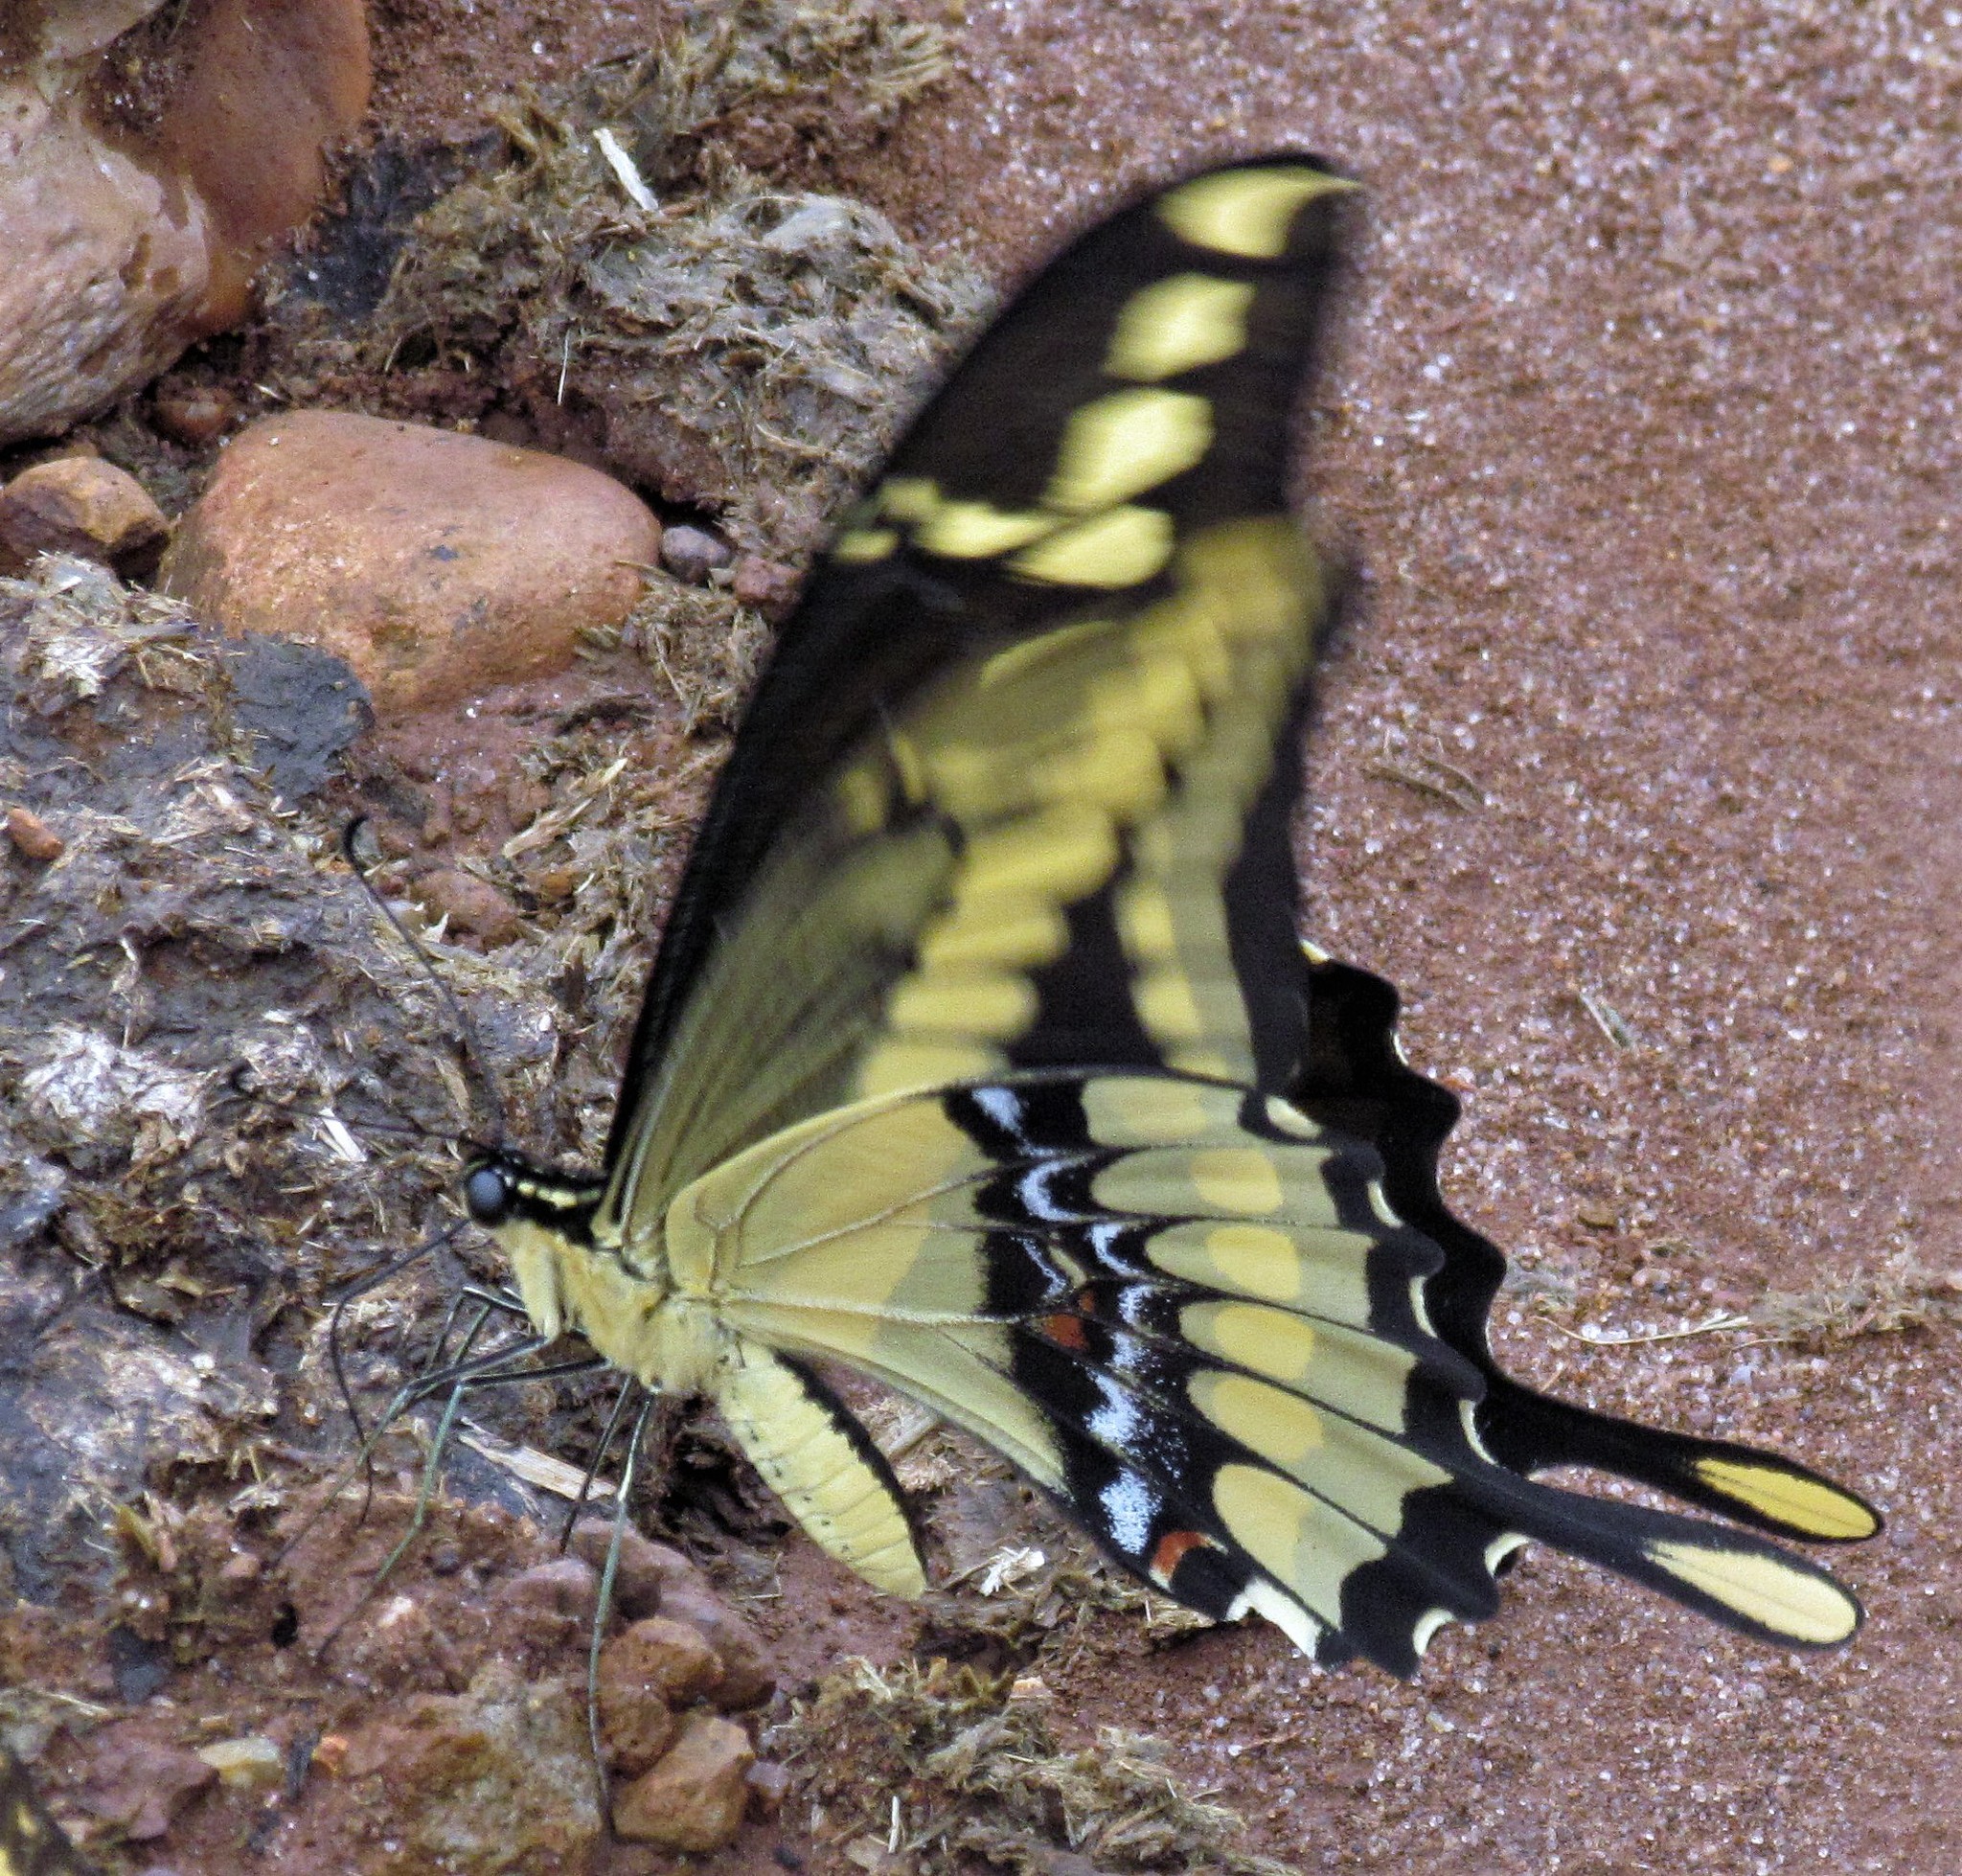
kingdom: Animalia
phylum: Arthropoda
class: Insecta
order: Lepidoptera
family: Papilionidae
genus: Papilio
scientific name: Papilio thoas
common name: King swallowtail
